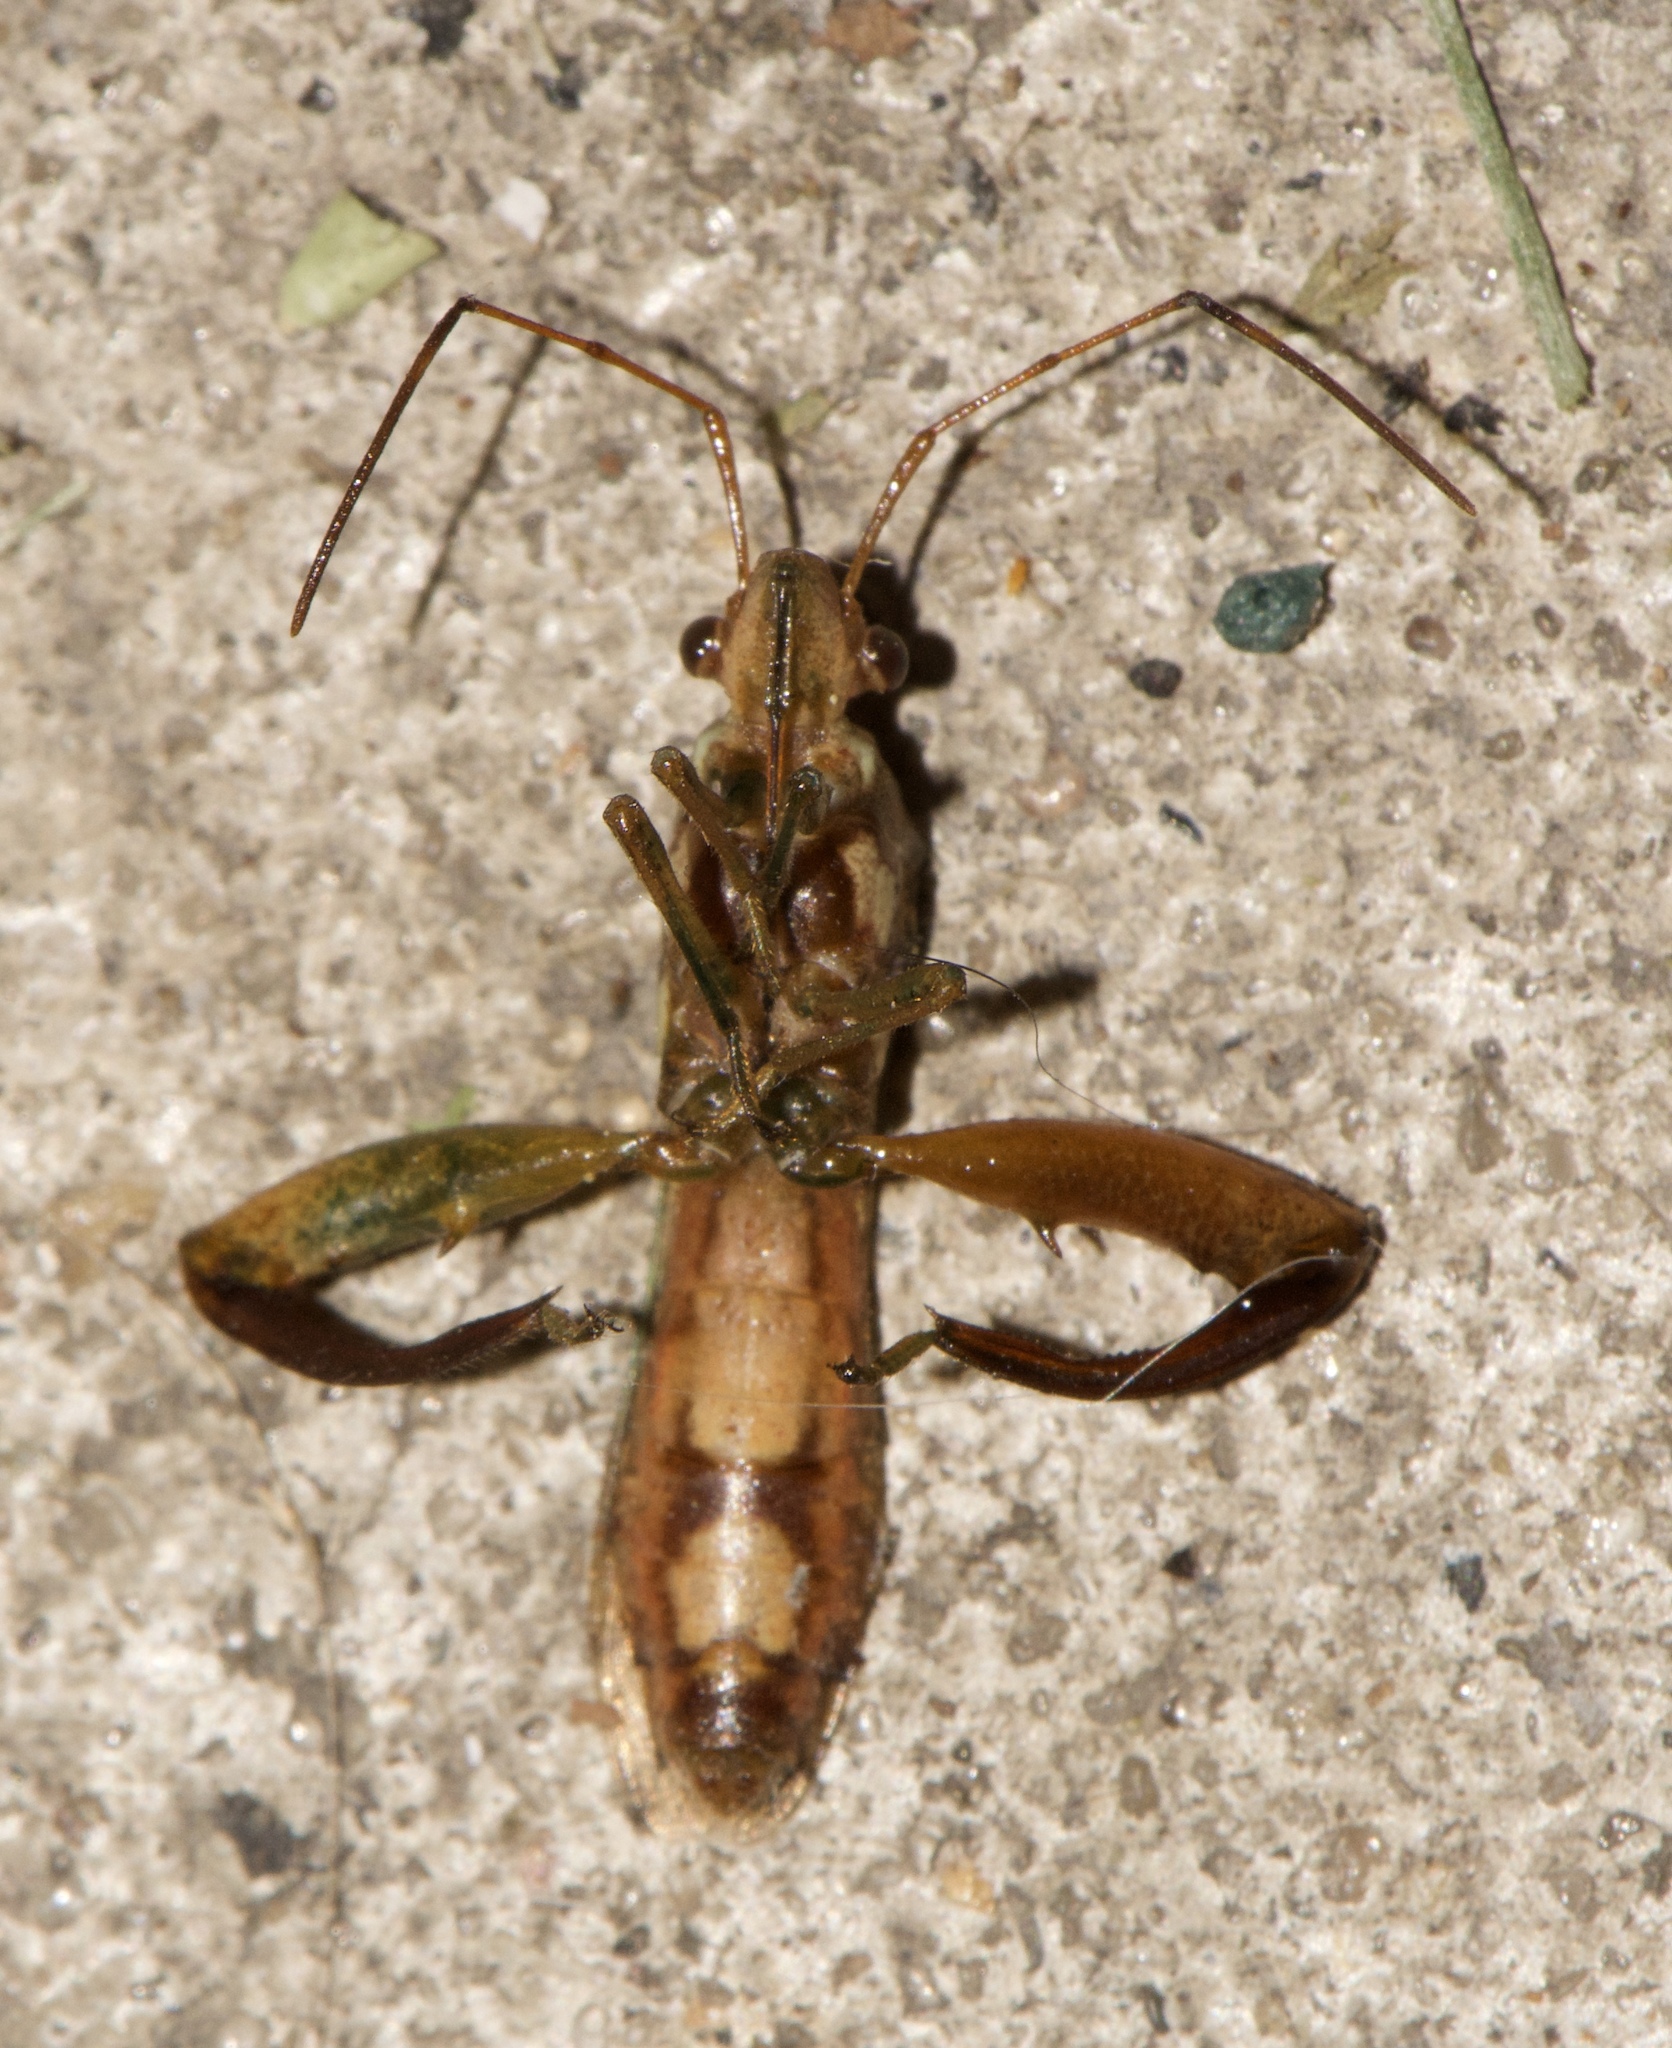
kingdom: Animalia
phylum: Arthropoda
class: Insecta
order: Hemiptera
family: Alydidae
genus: Hyalymenus
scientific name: Hyalymenus tarsatus
